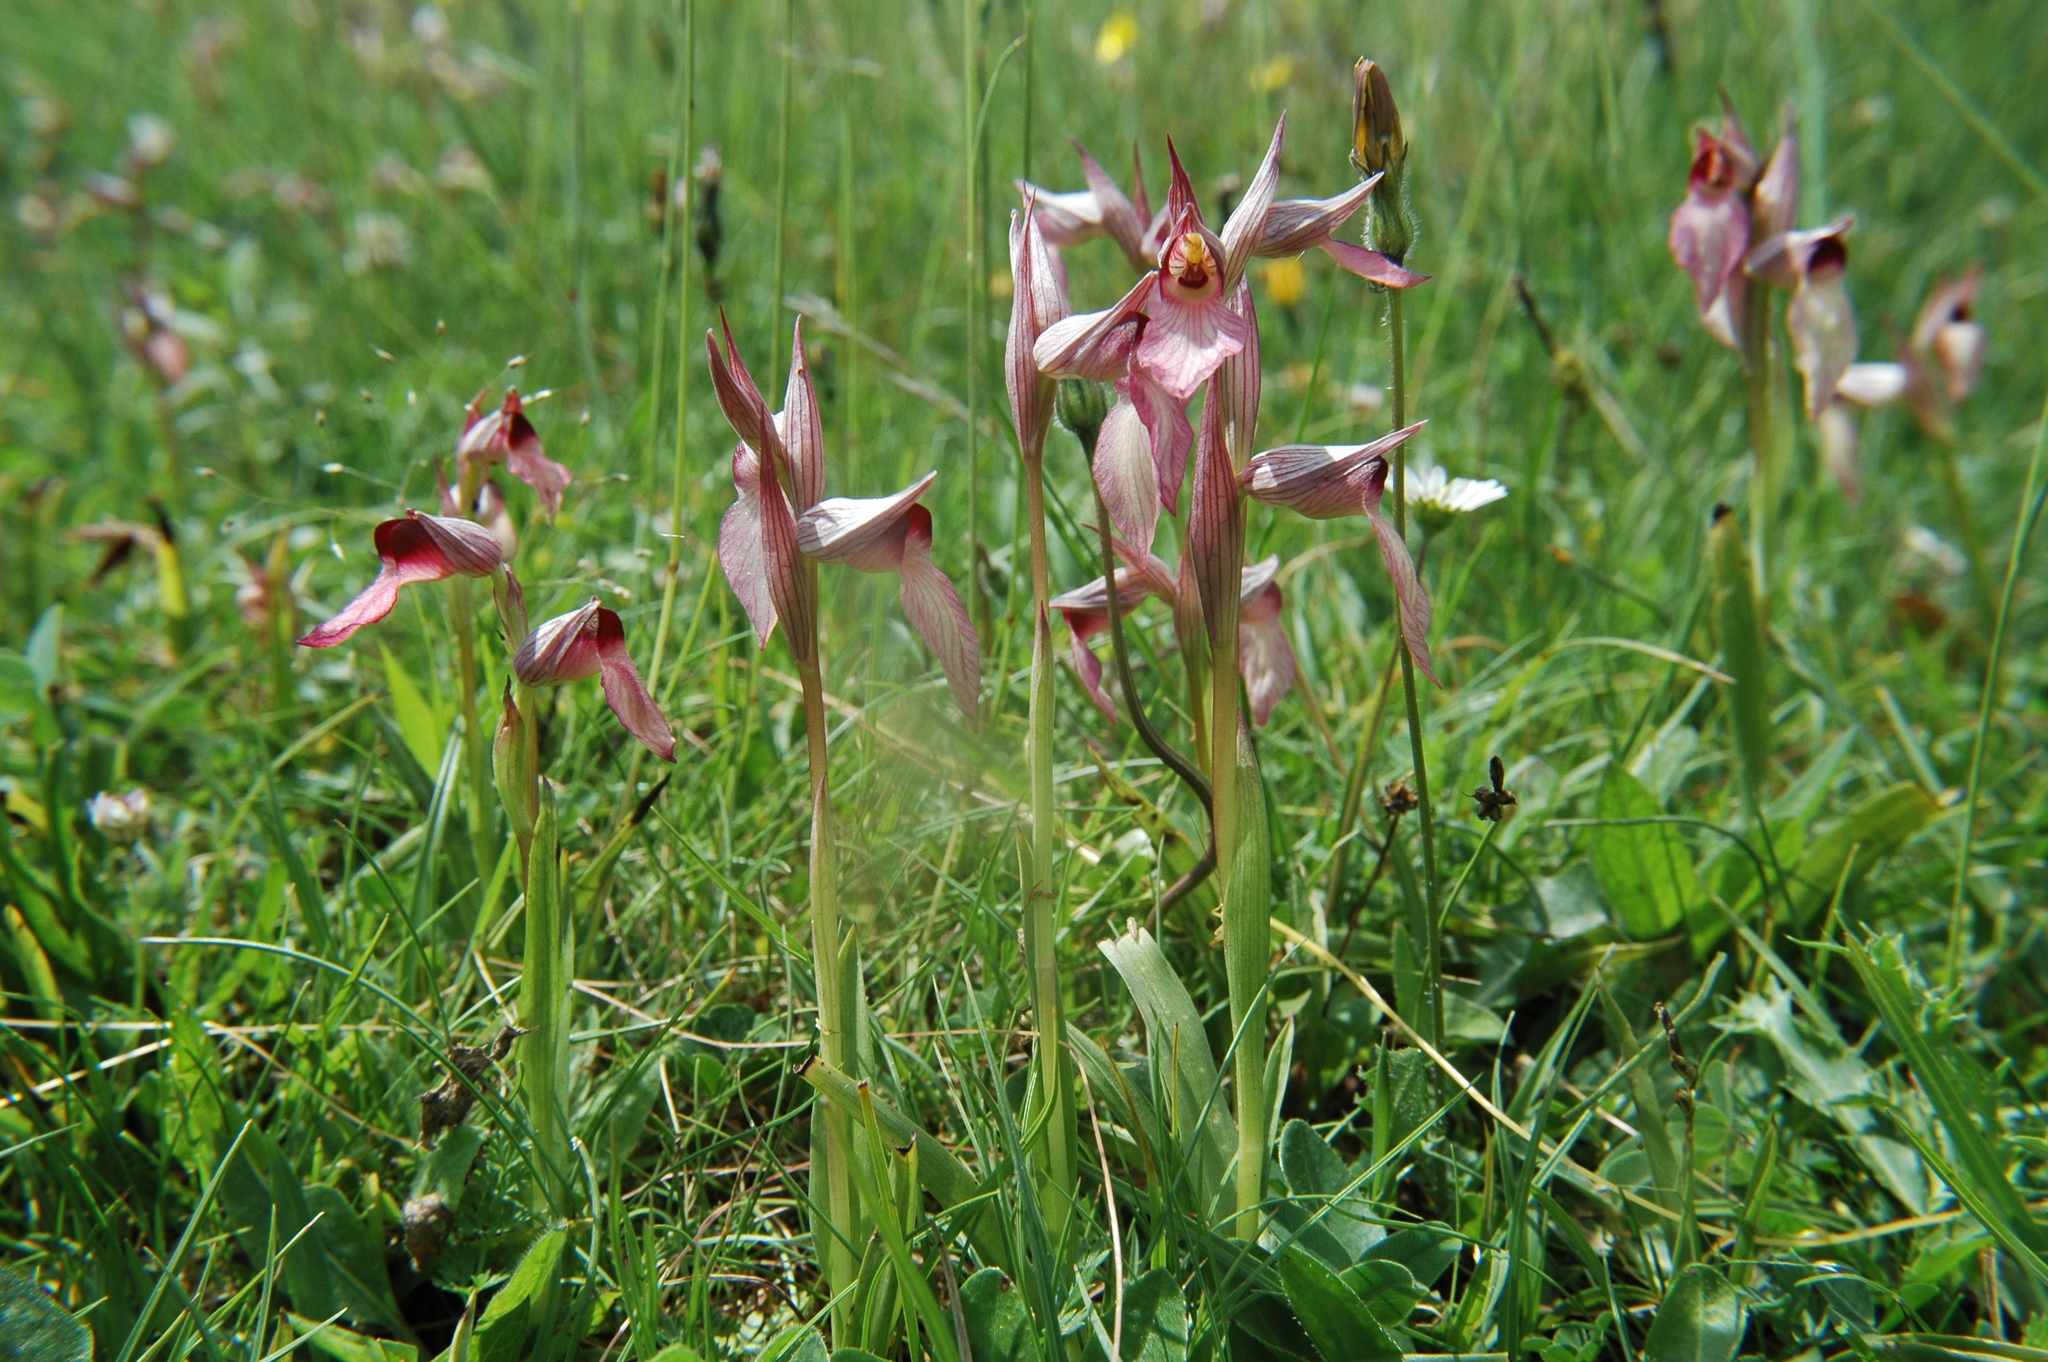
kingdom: Plantae
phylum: Tracheophyta
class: Liliopsida
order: Asparagales
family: Orchidaceae
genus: Serapias
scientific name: Serapias lingua
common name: Tongue-orchid
